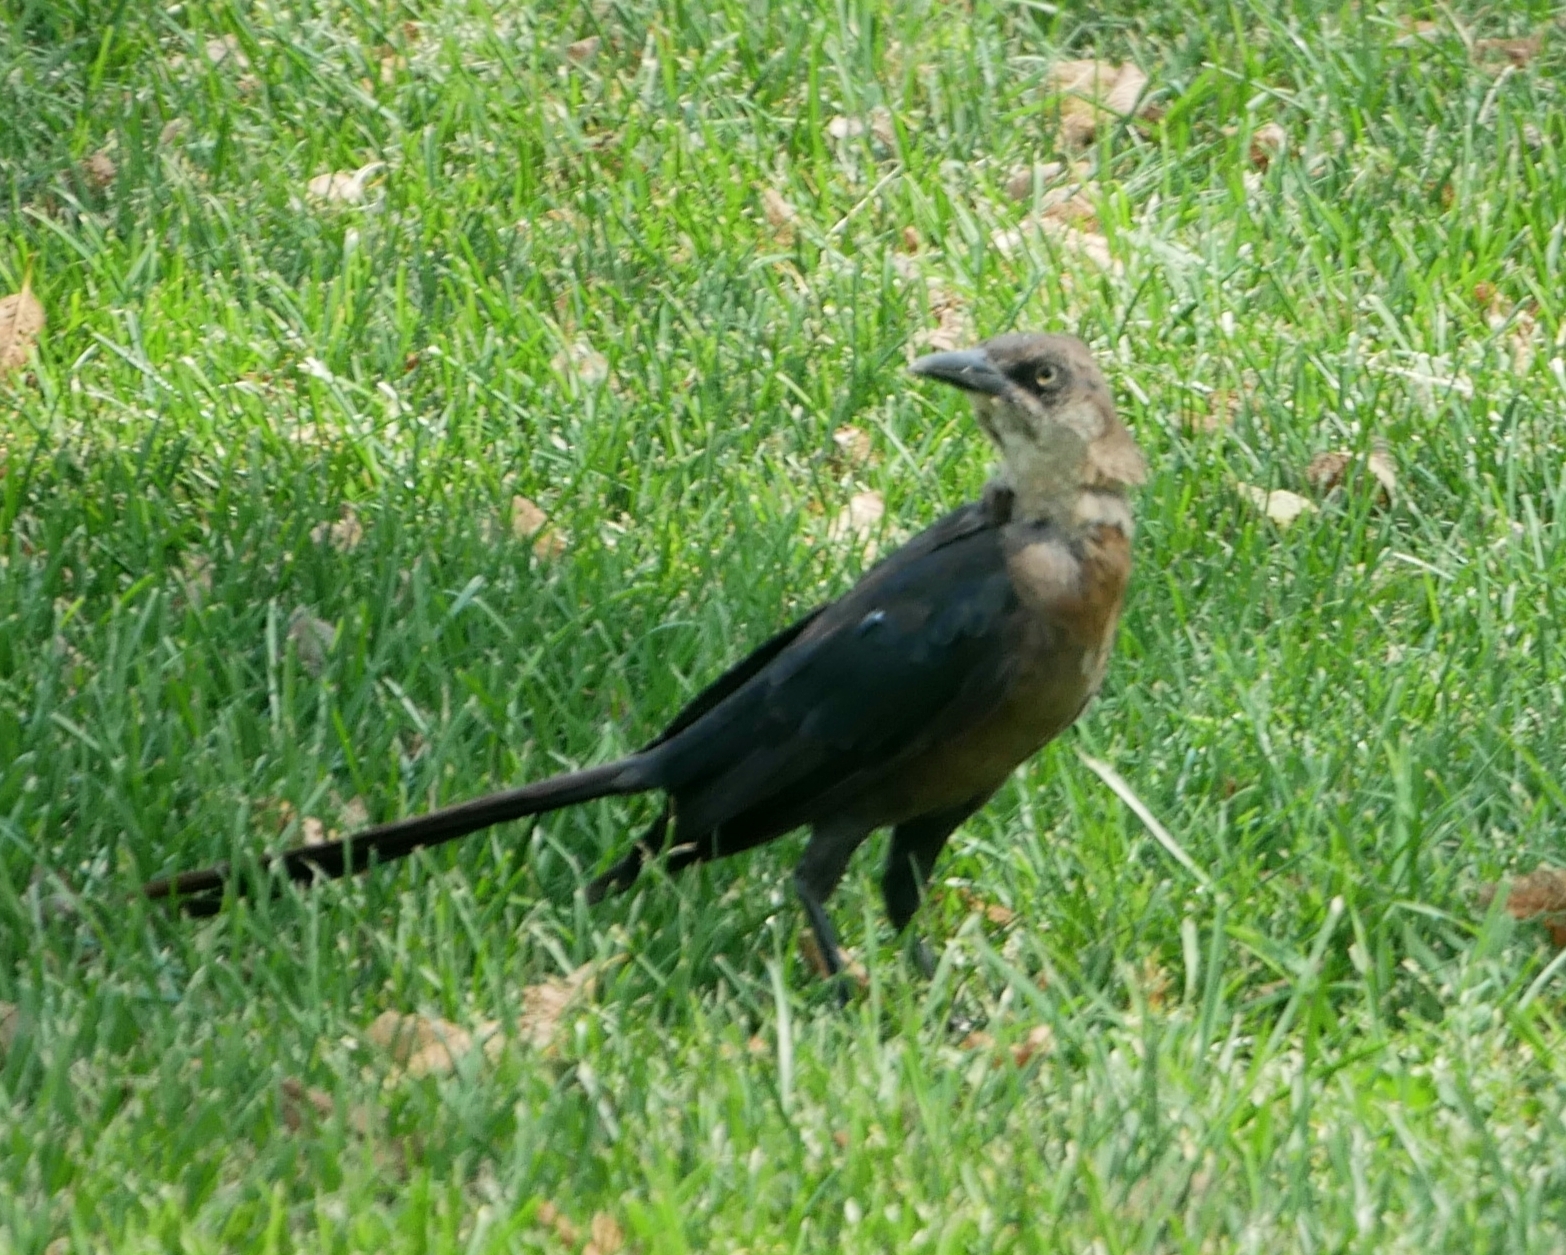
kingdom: Animalia
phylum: Chordata
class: Aves
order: Passeriformes
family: Icteridae
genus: Quiscalus
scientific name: Quiscalus mexicanus
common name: Great-tailed grackle
